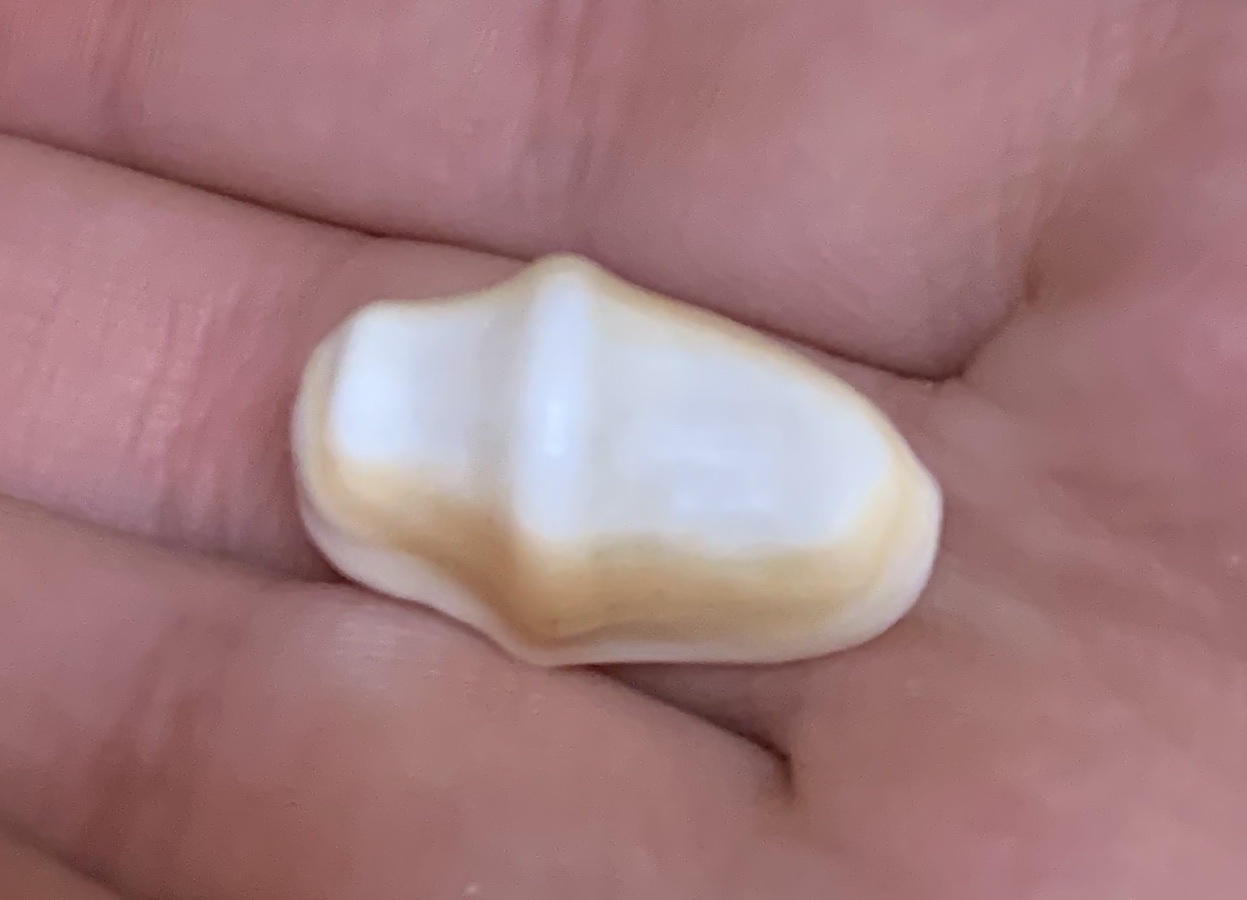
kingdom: Animalia
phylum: Mollusca
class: Gastropoda
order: Littorinimorpha
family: Ovulidae
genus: Cyphoma
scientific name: Cyphoma gibbosum
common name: Flamingo tongue
